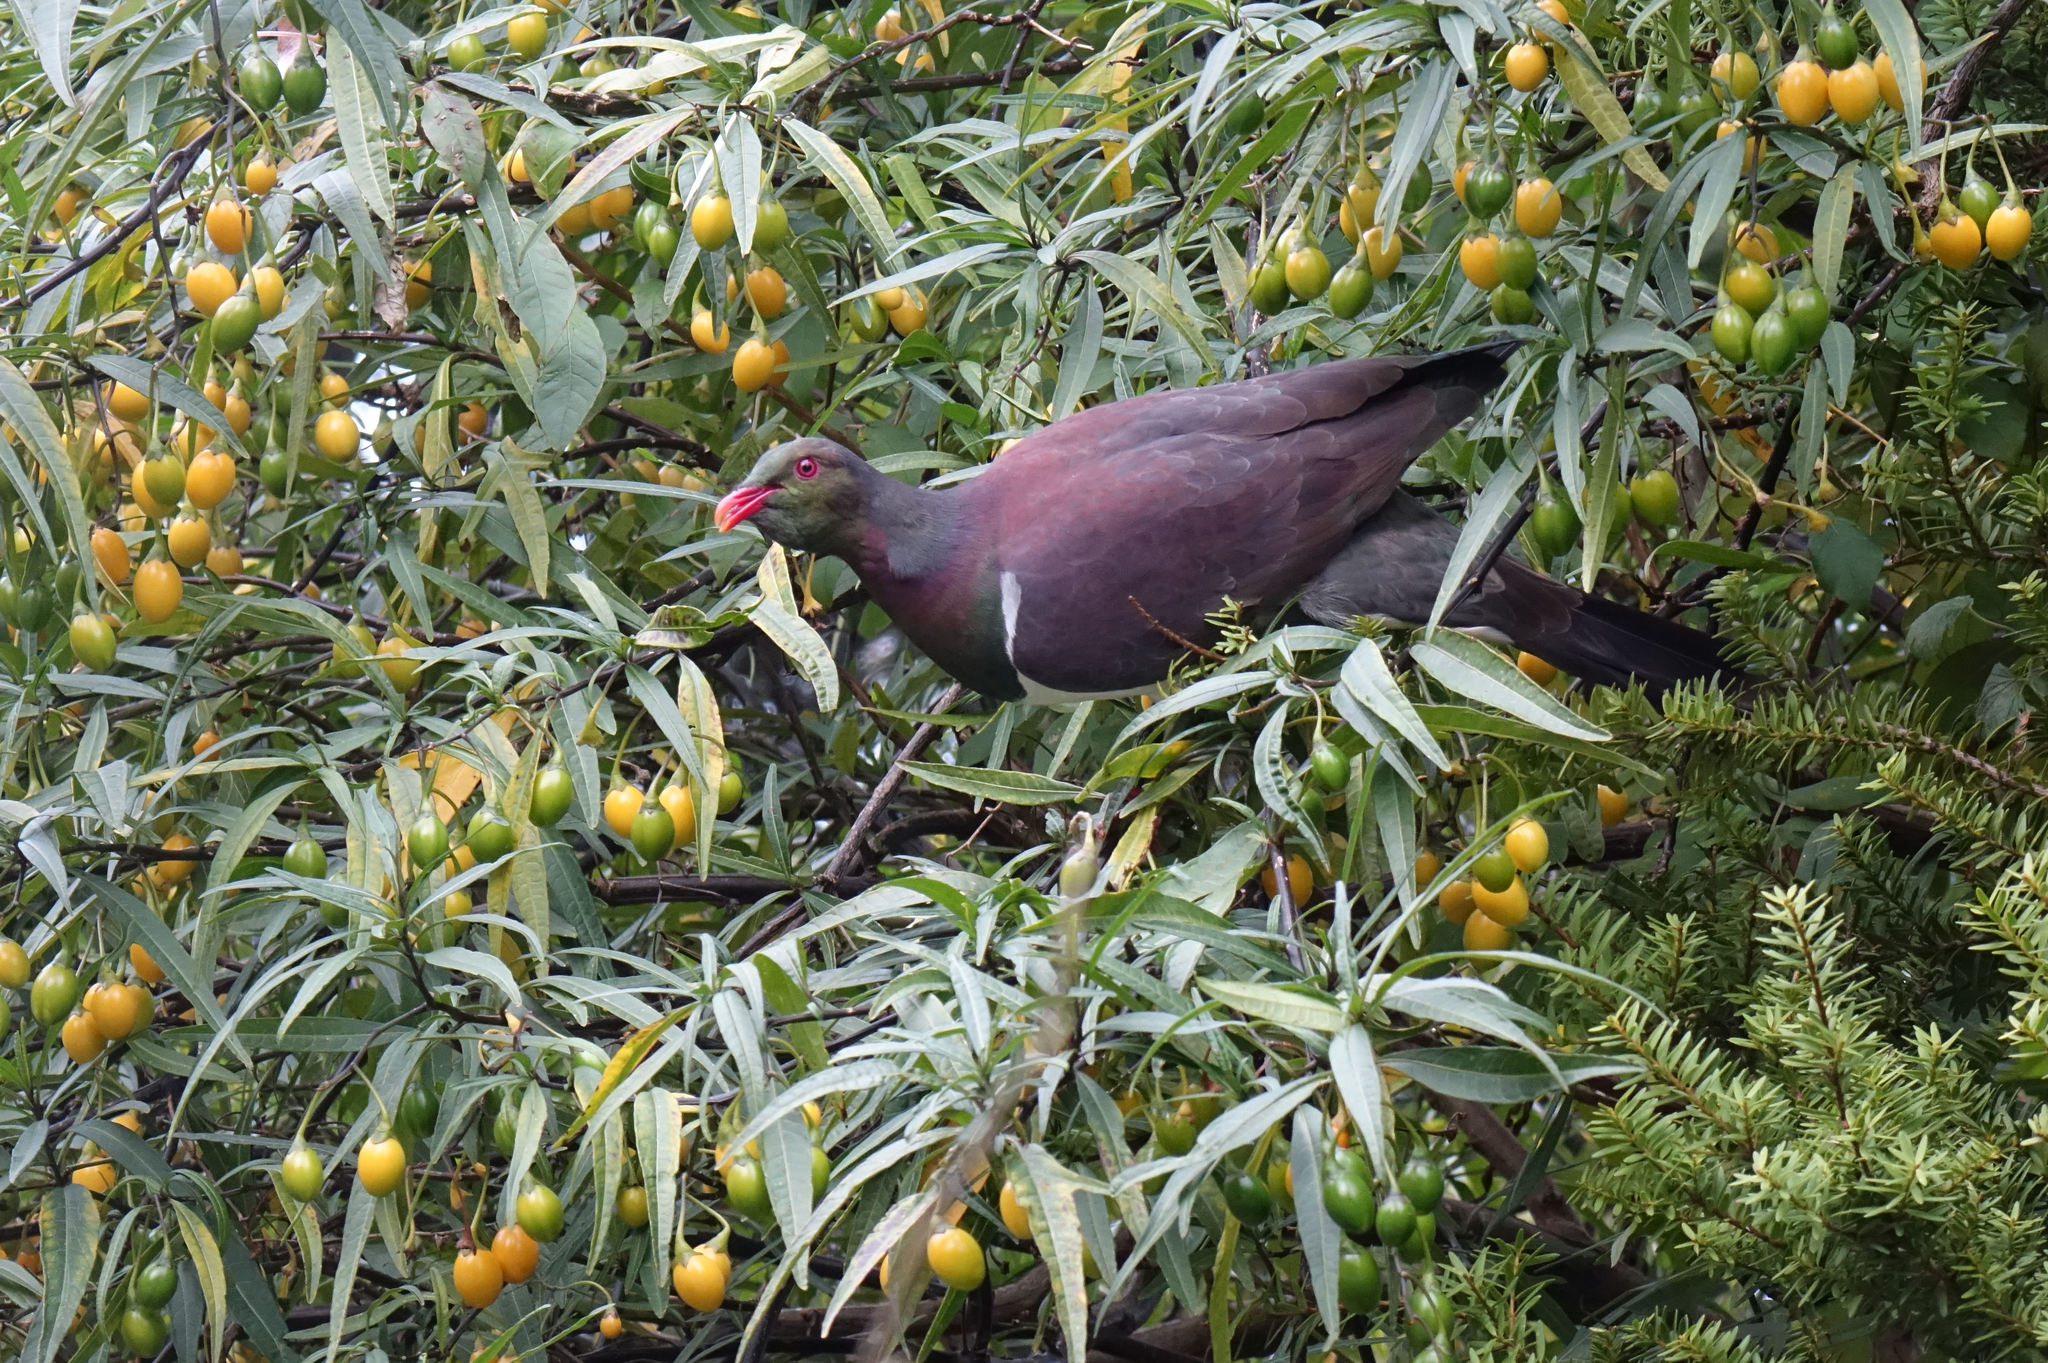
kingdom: Animalia
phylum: Chordata
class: Aves
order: Columbiformes
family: Columbidae
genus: Hemiphaga
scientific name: Hemiphaga novaeseelandiae
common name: New zealand pigeon
